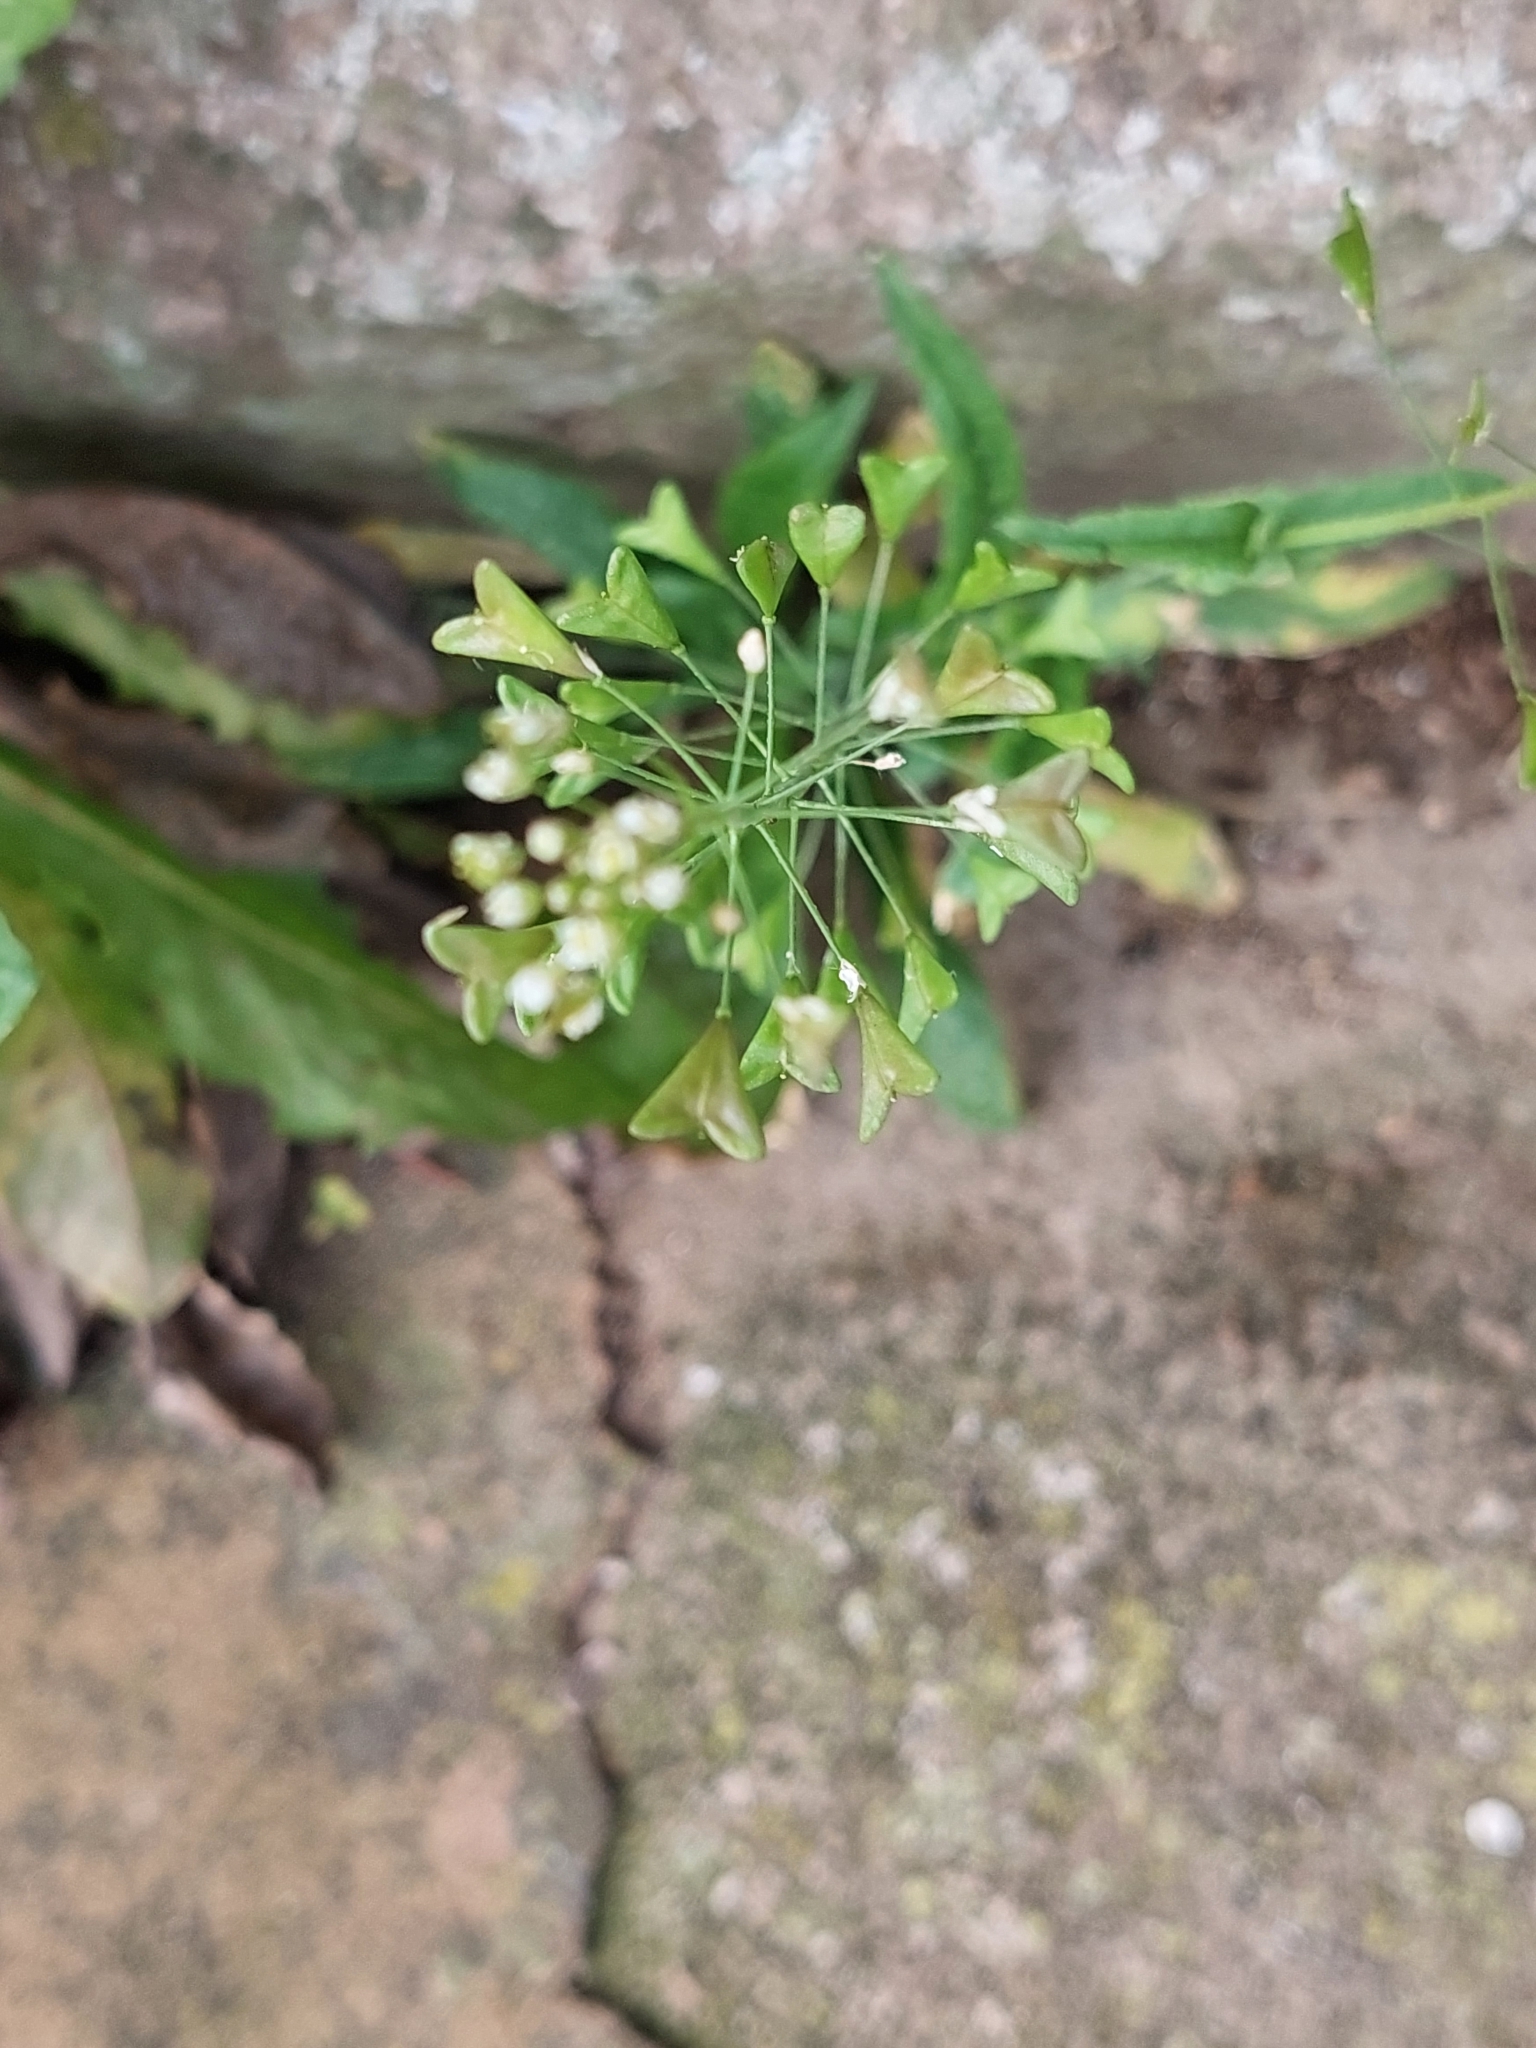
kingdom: Plantae
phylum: Tracheophyta
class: Magnoliopsida
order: Brassicales
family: Brassicaceae
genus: Capsella
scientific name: Capsella bursa-pastoris
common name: Shepherd's purse
